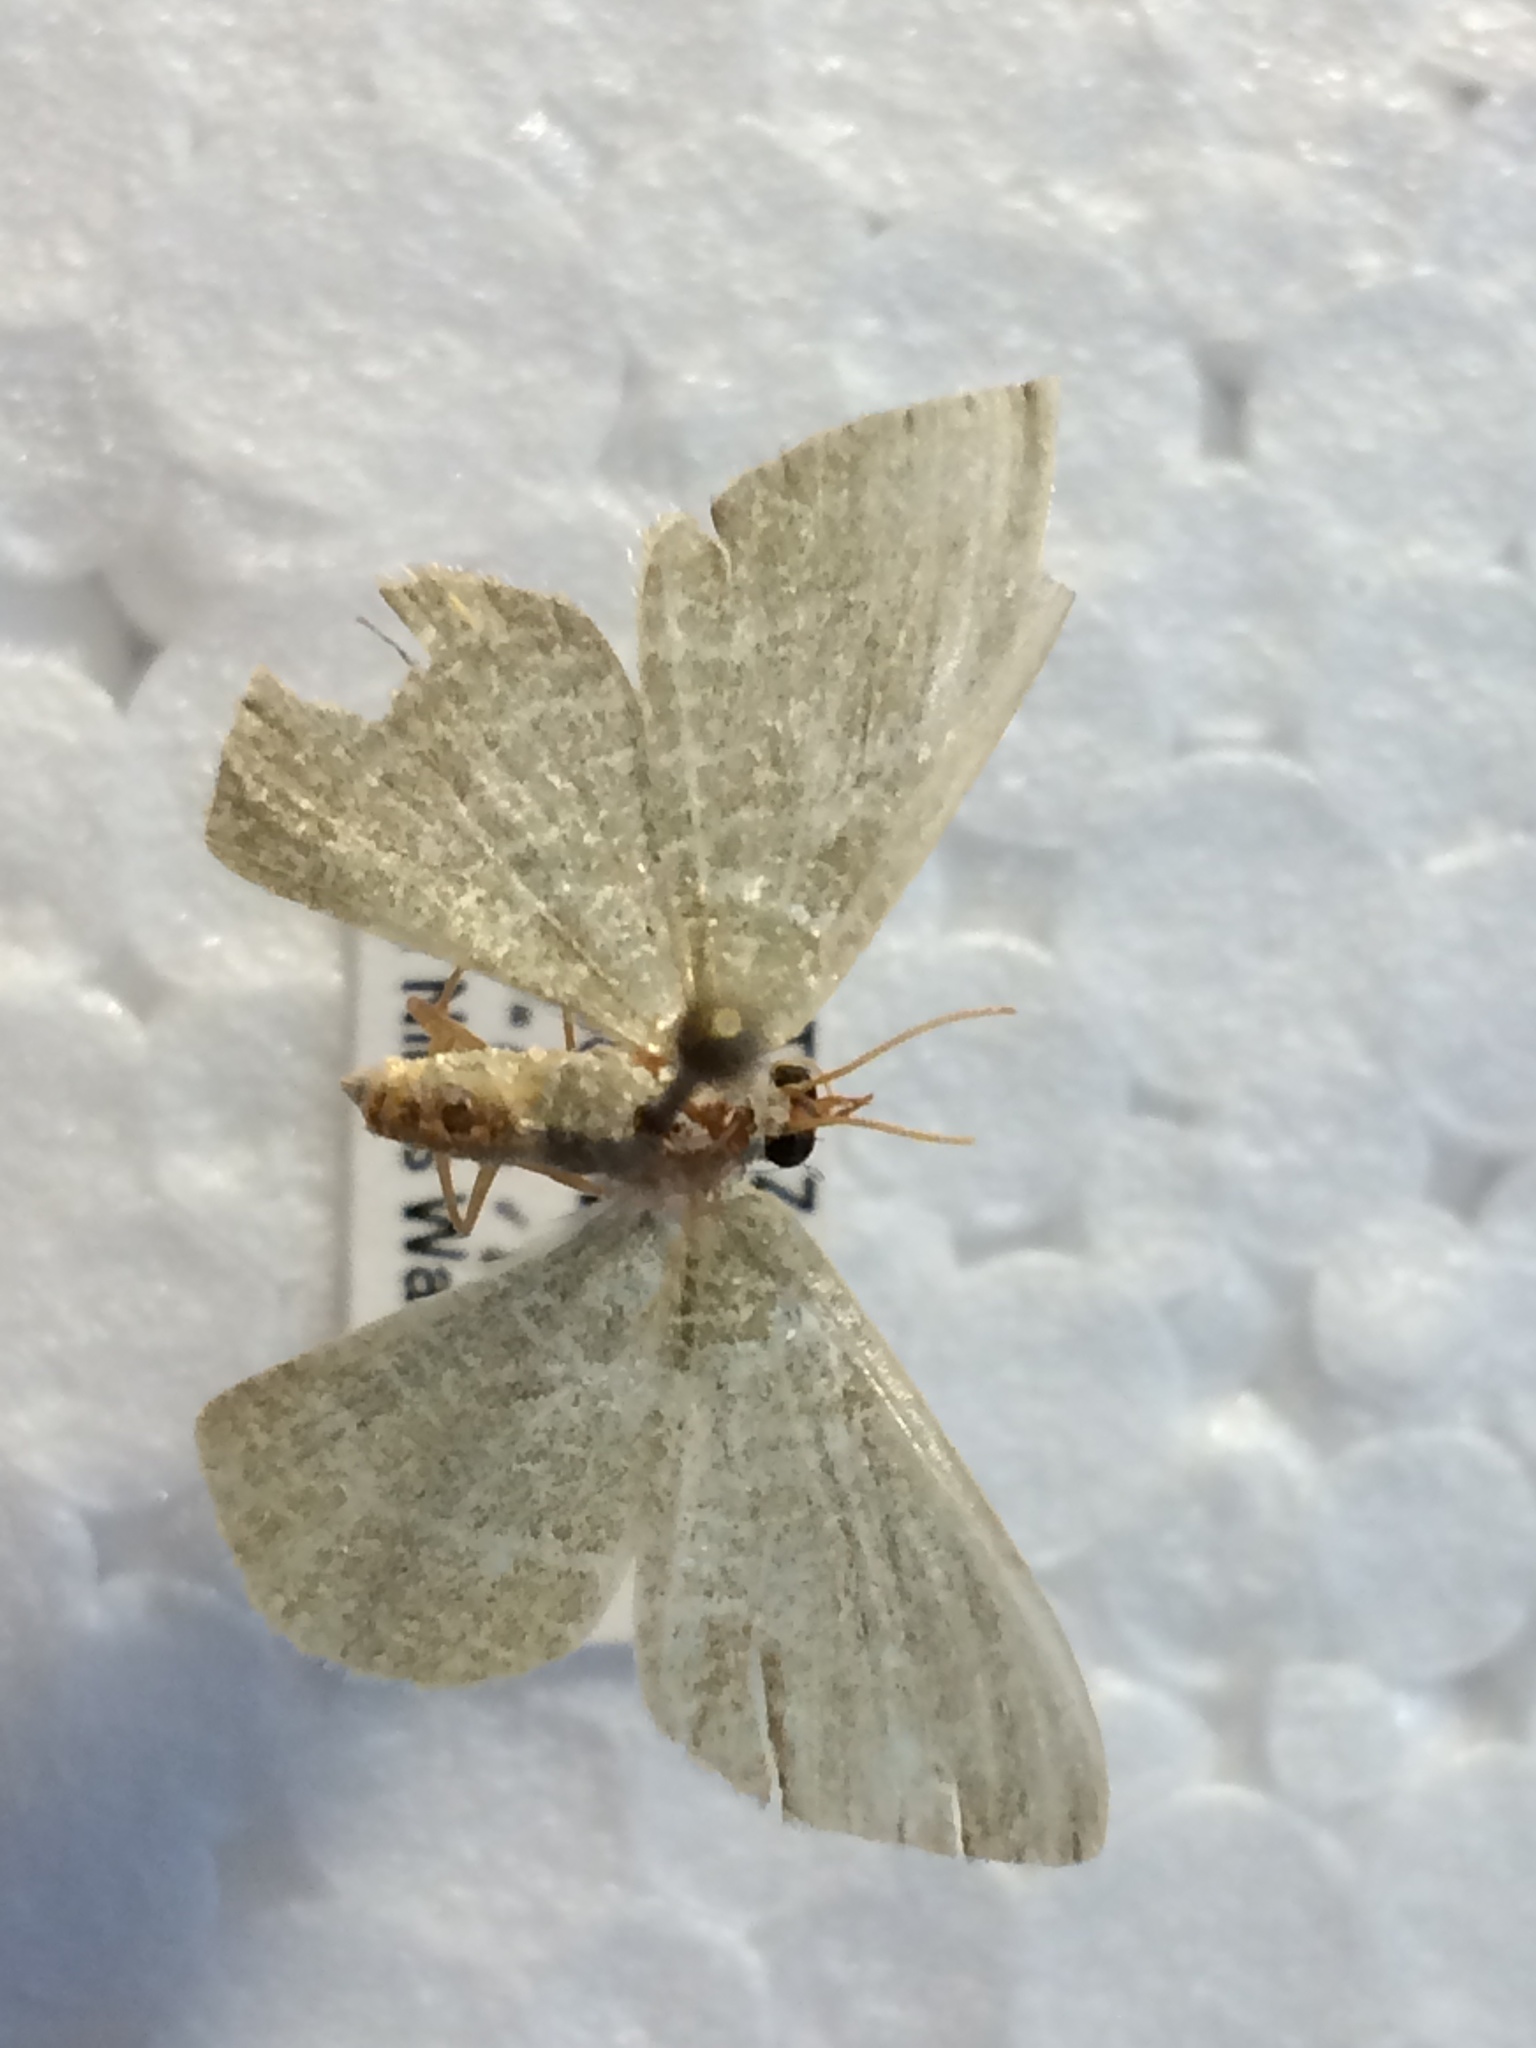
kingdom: Animalia
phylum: Arthropoda
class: Insecta
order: Lepidoptera
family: Geometridae
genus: Chlorissa
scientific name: Chlorissa etruscaria
